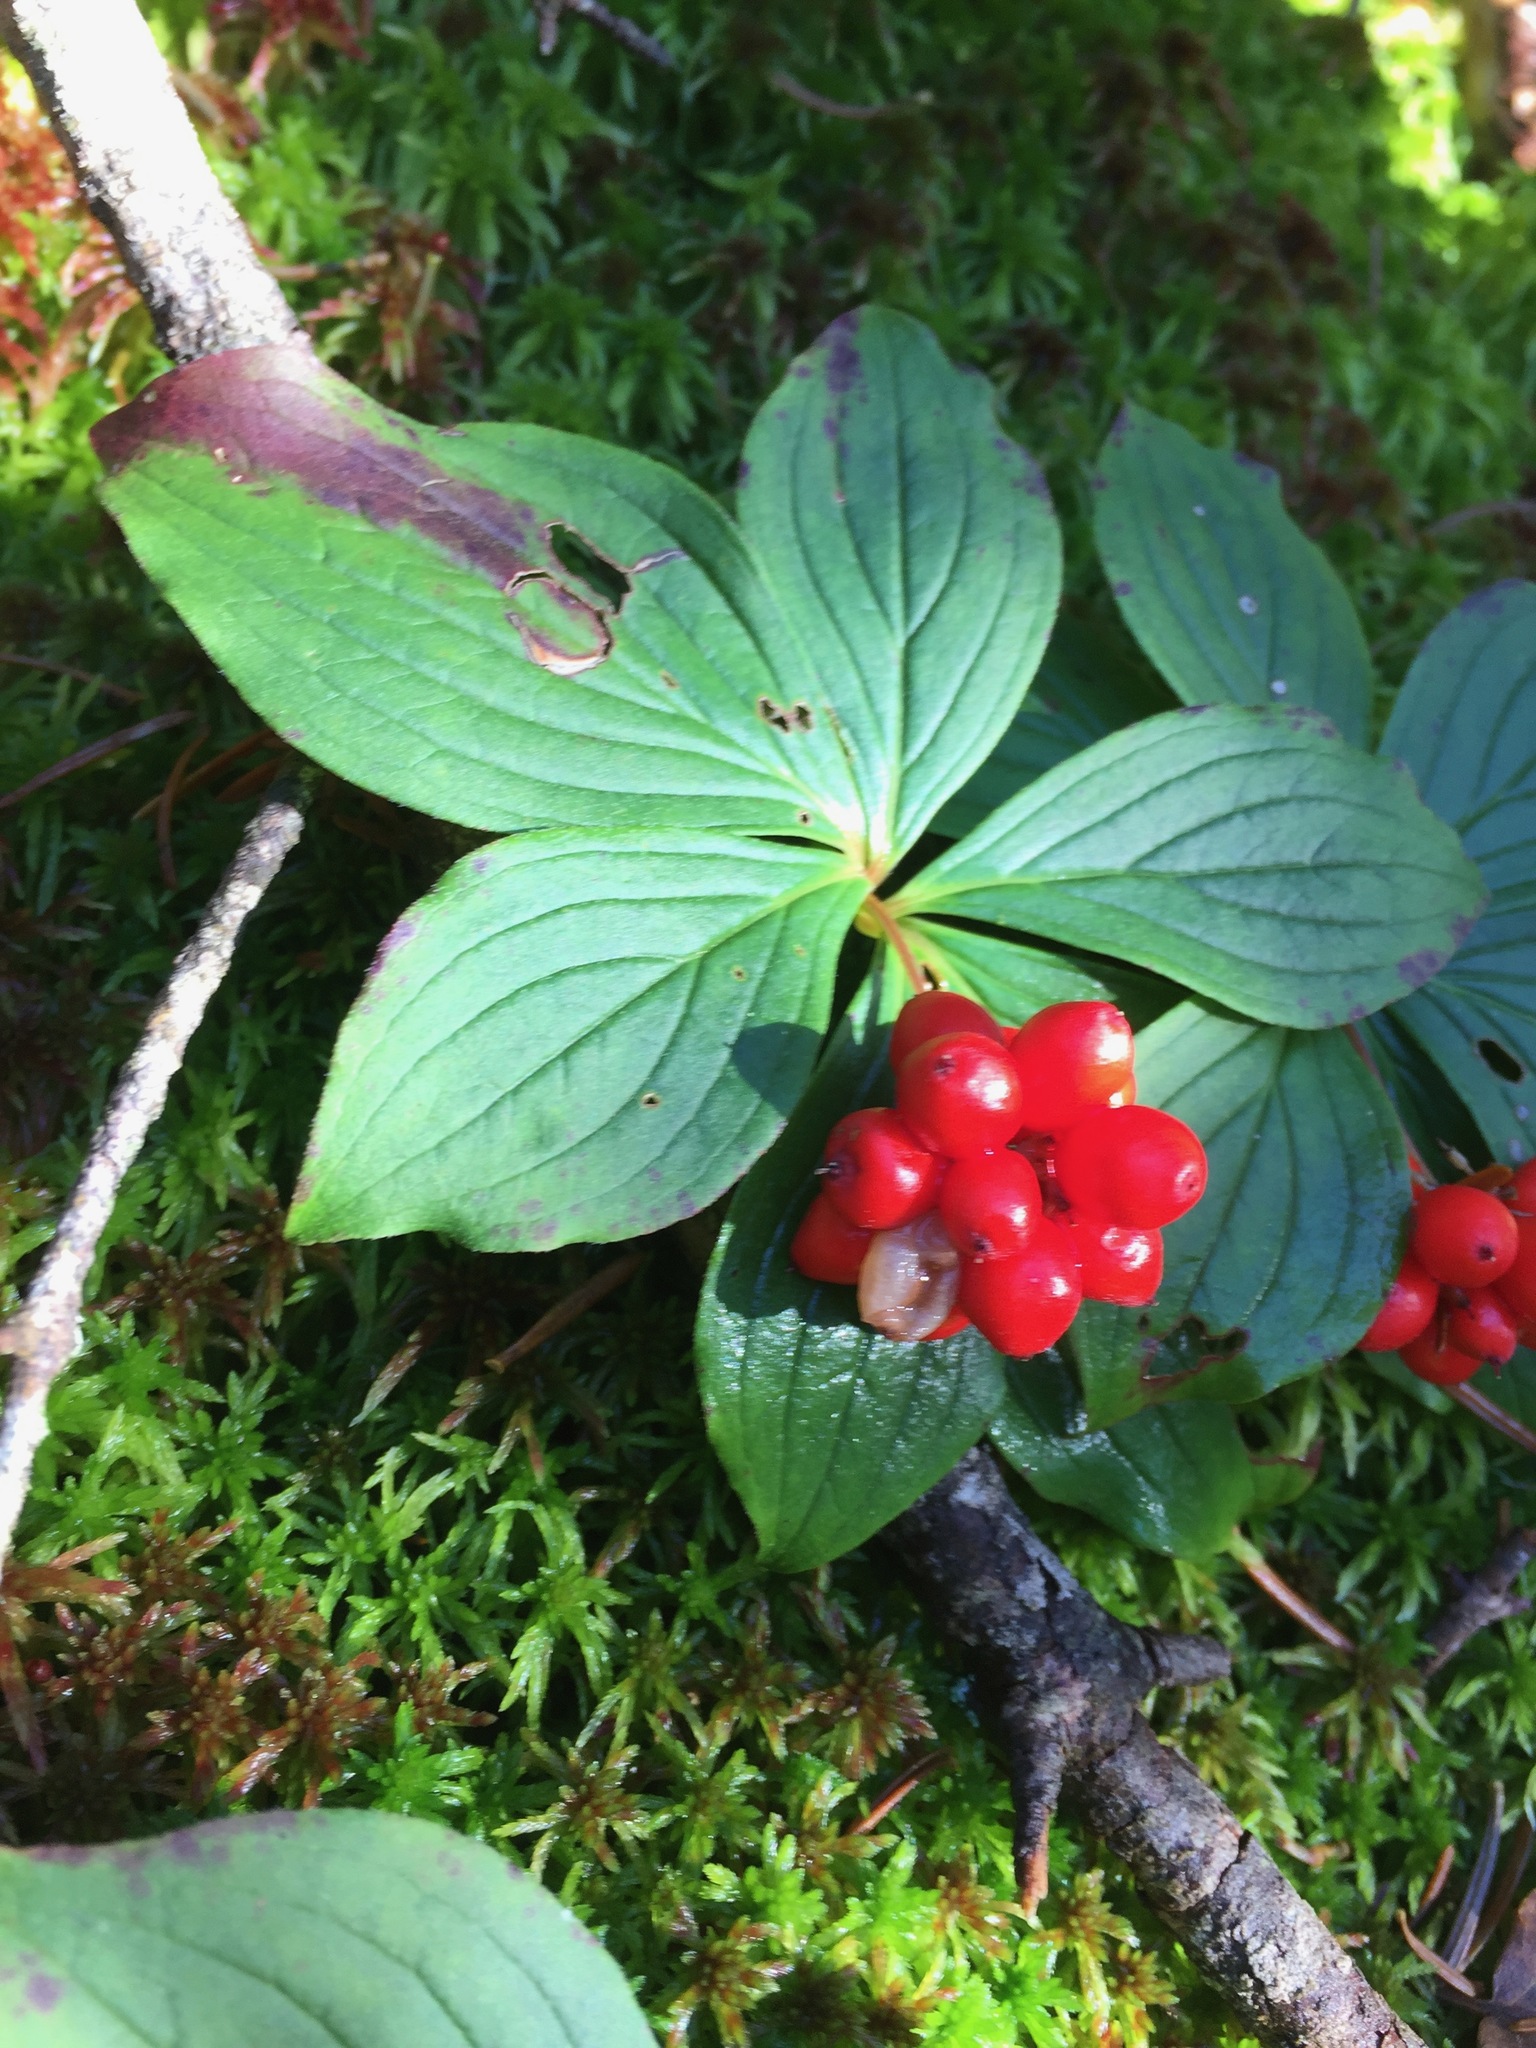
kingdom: Plantae
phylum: Tracheophyta
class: Magnoliopsida
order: Cornales
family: Cornaceae
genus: Cornus
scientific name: Cornus canadensis
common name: Creeping dogwood
